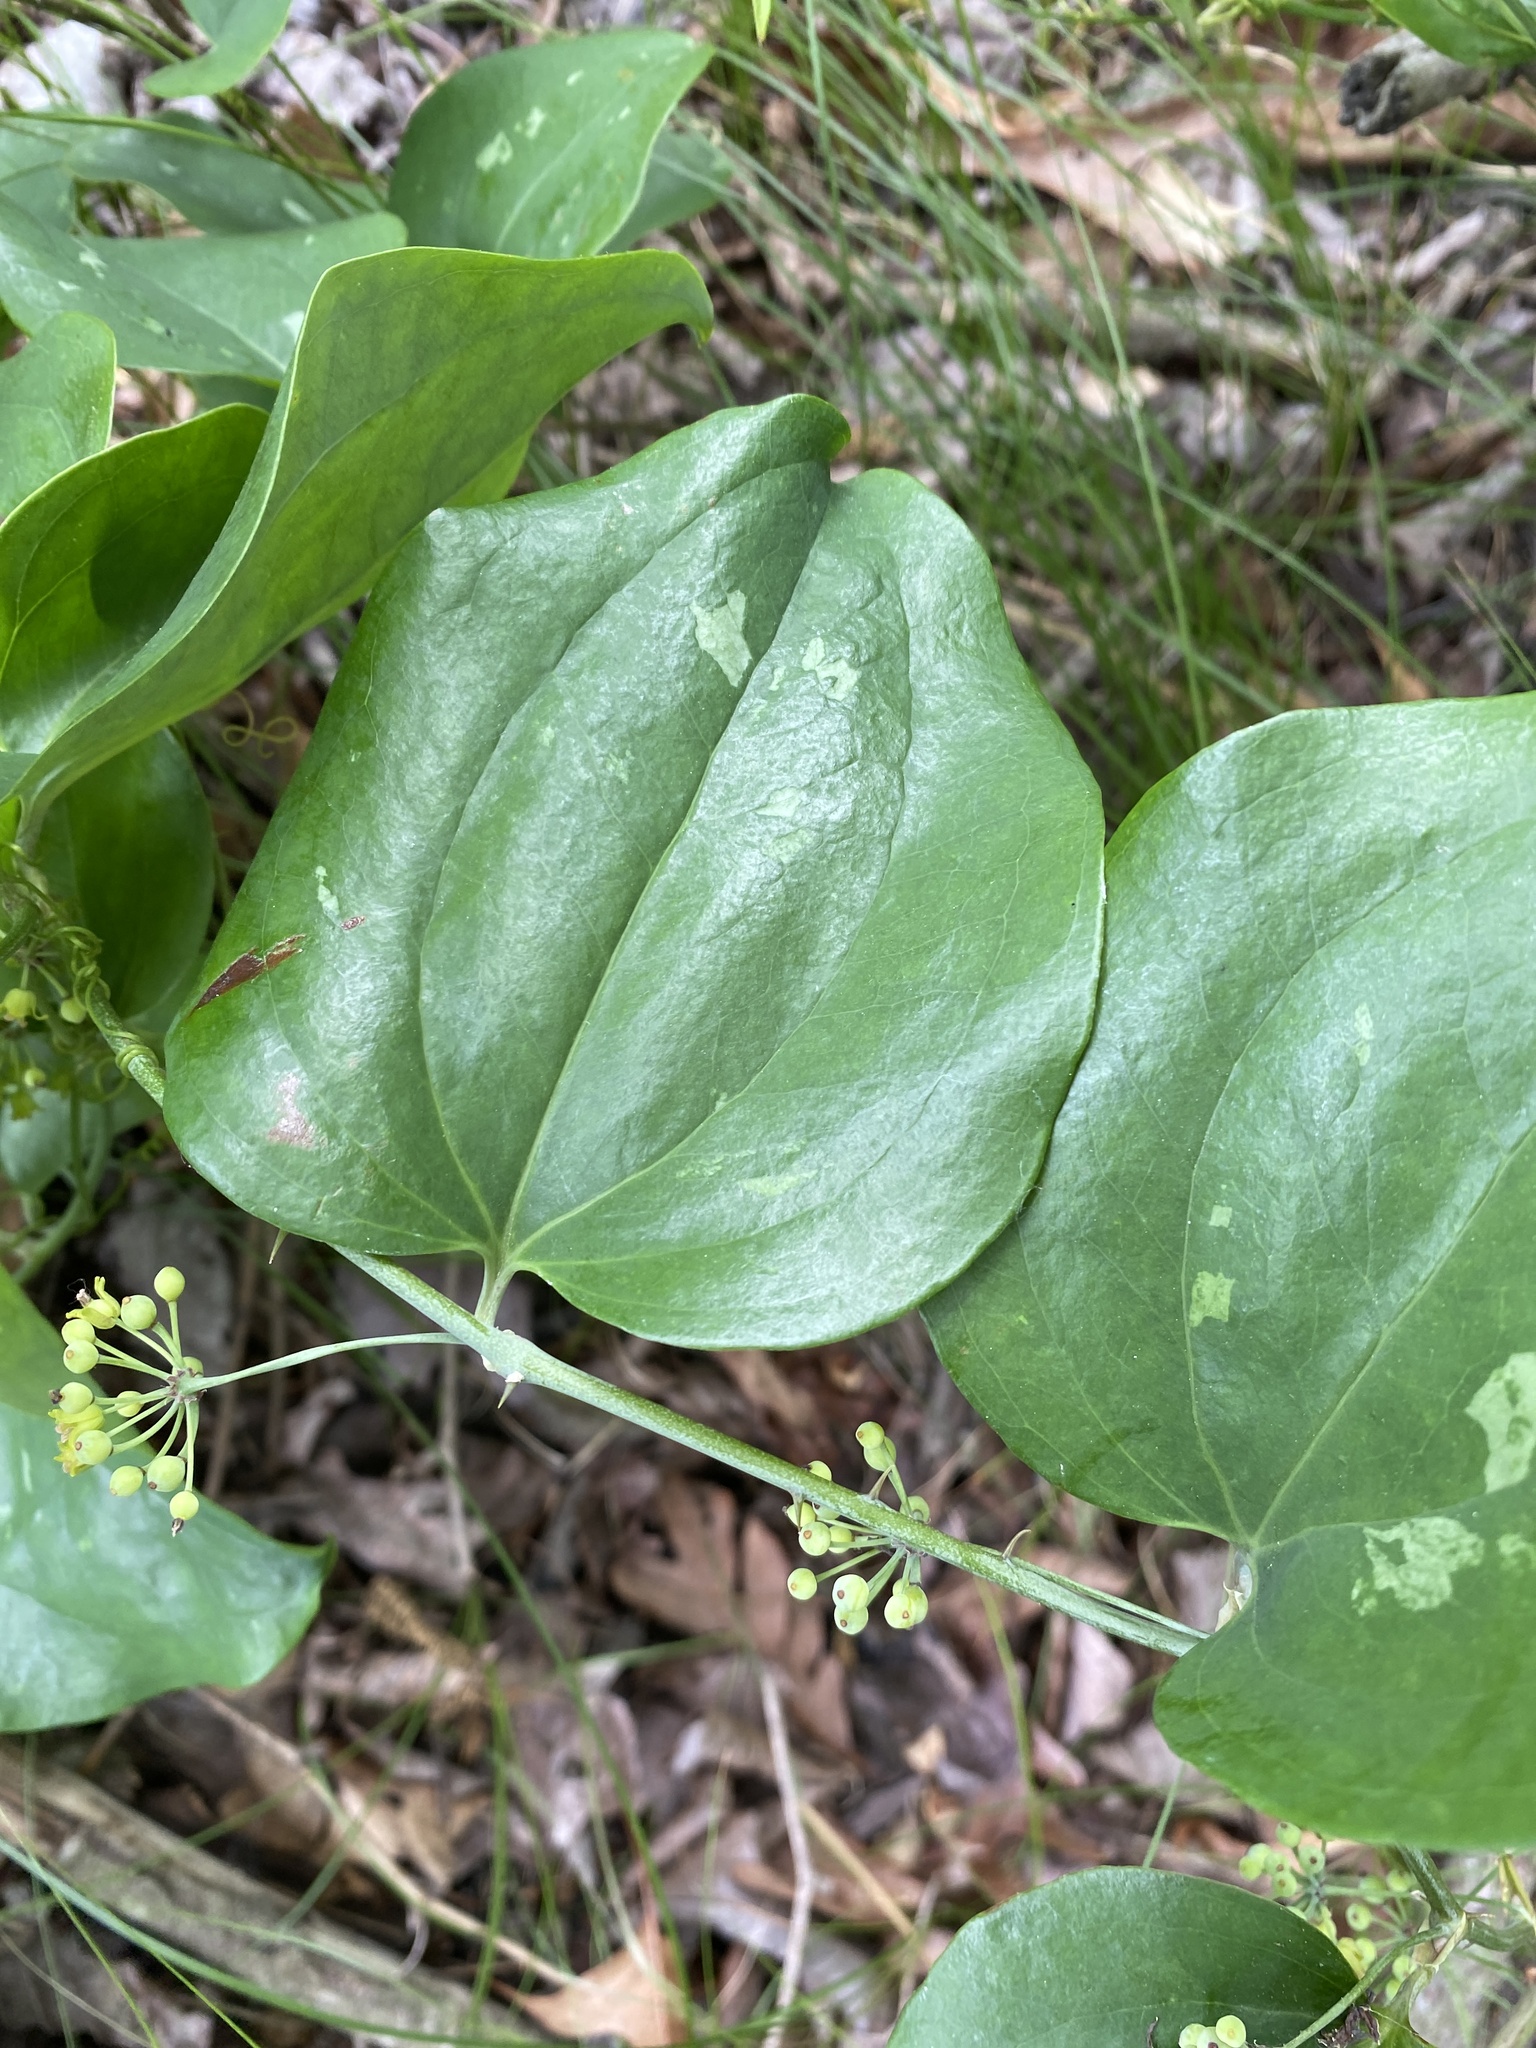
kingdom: Plantae
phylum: Tracheophyta
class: Liliopsida
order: Liliales
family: Smilacaceae
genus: Smilax
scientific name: Smilax glauca
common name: Cat greenbrier
